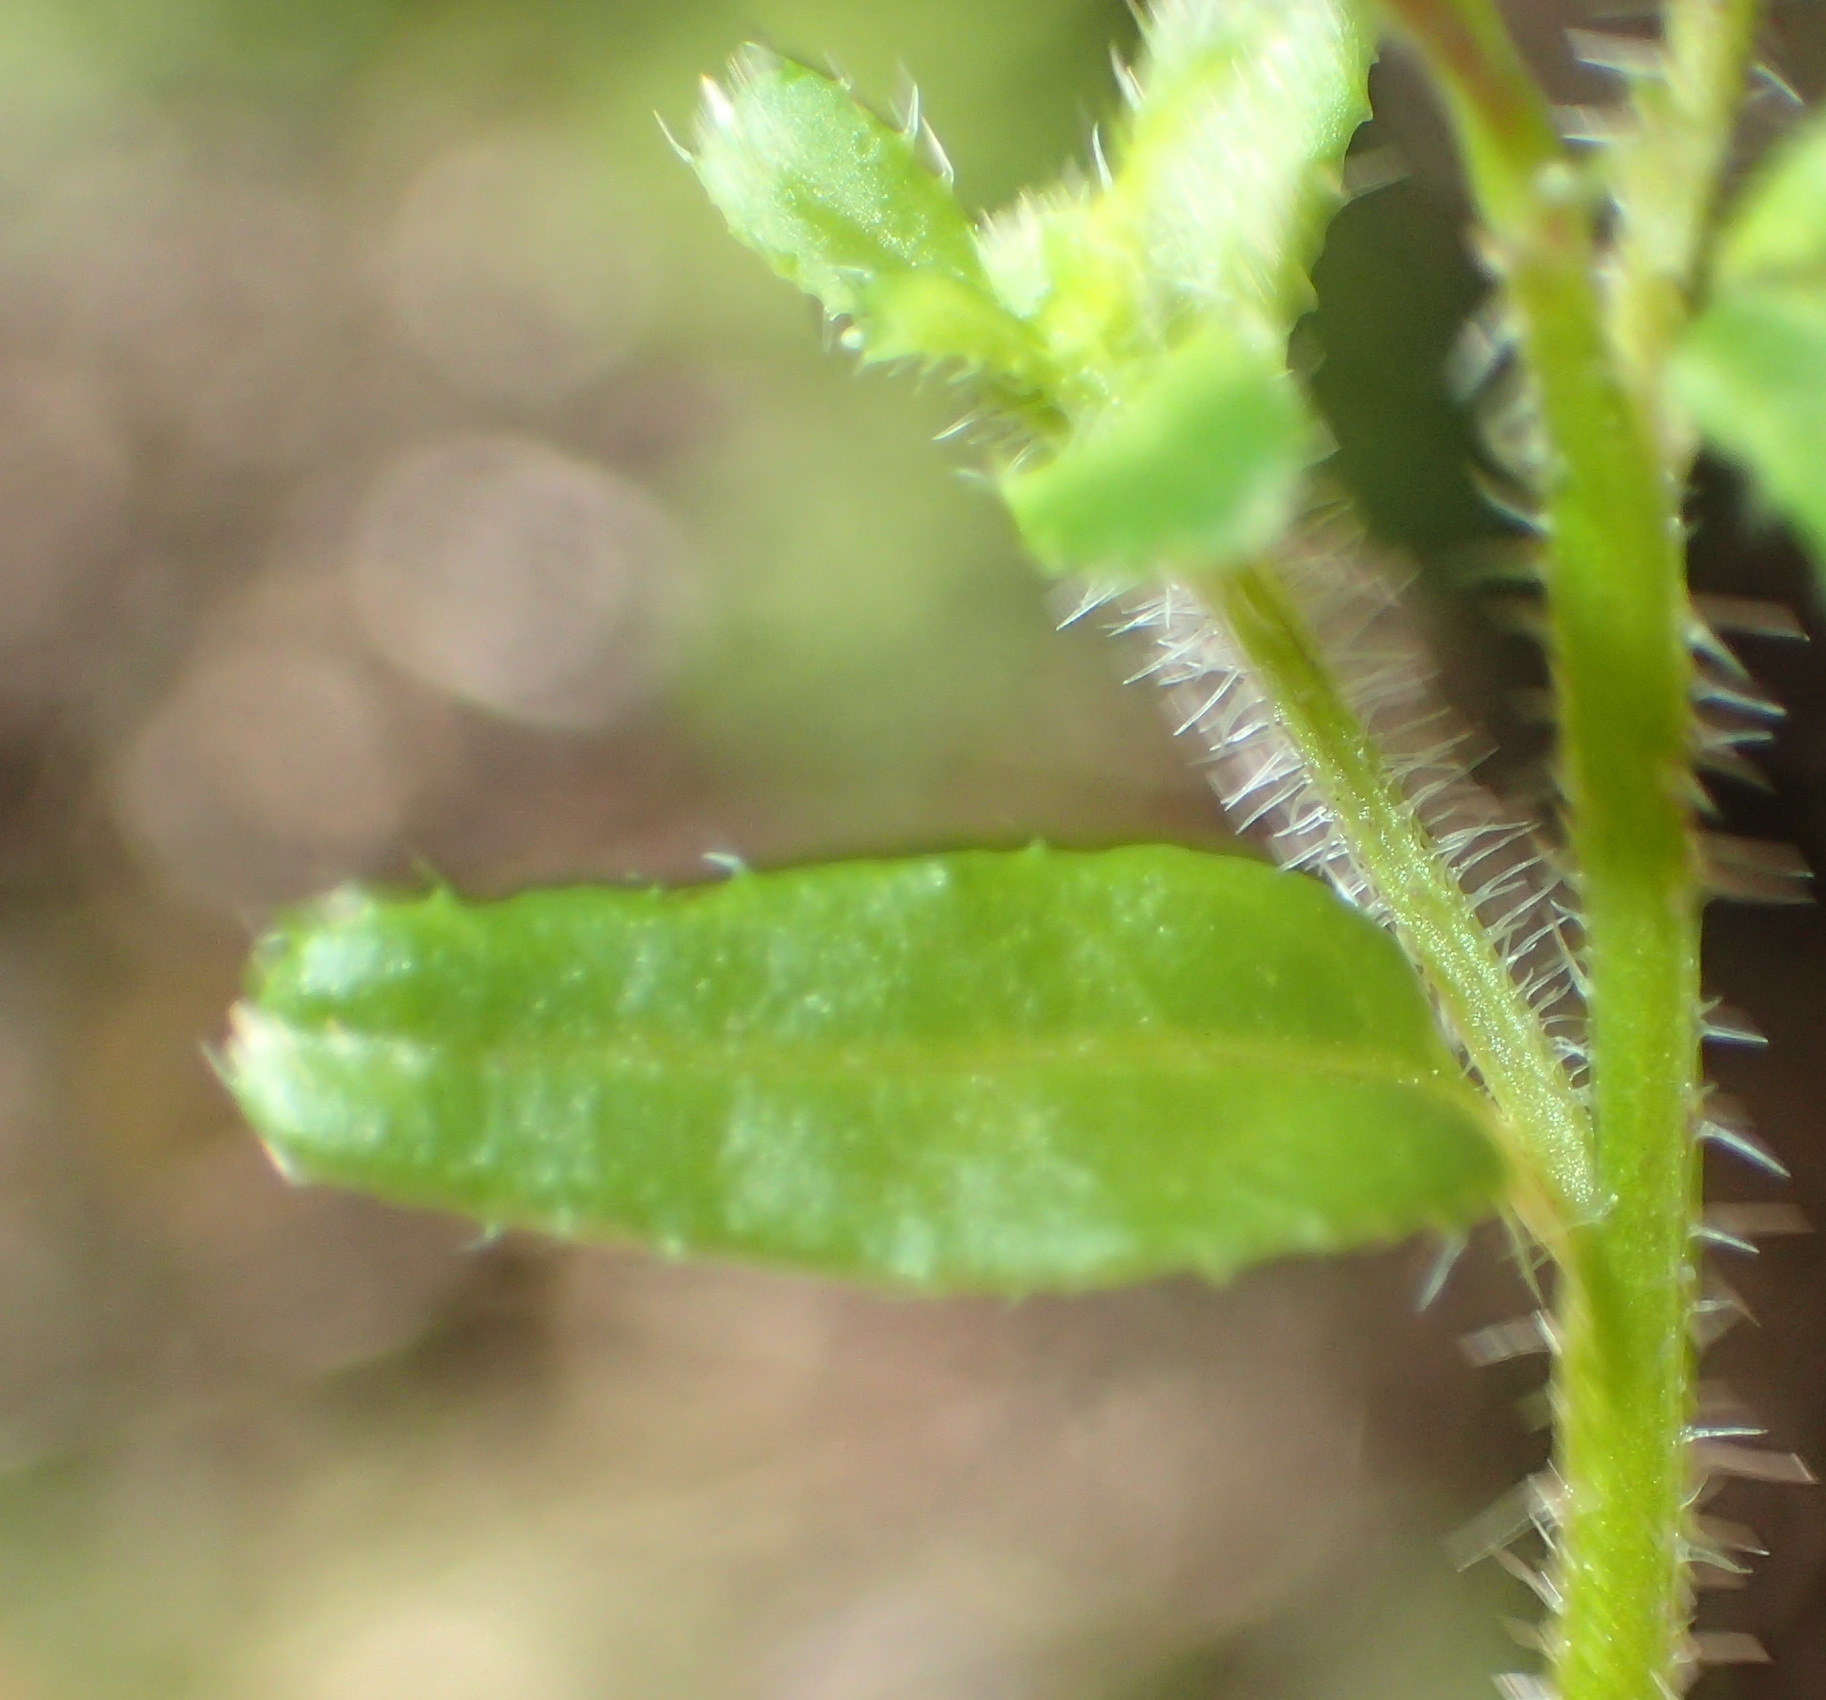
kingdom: Plantae
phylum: Tracheophyta
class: Magnoliopsida
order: Asterales
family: Campanulaceae
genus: Lobelia
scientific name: Lobelia neglecta
